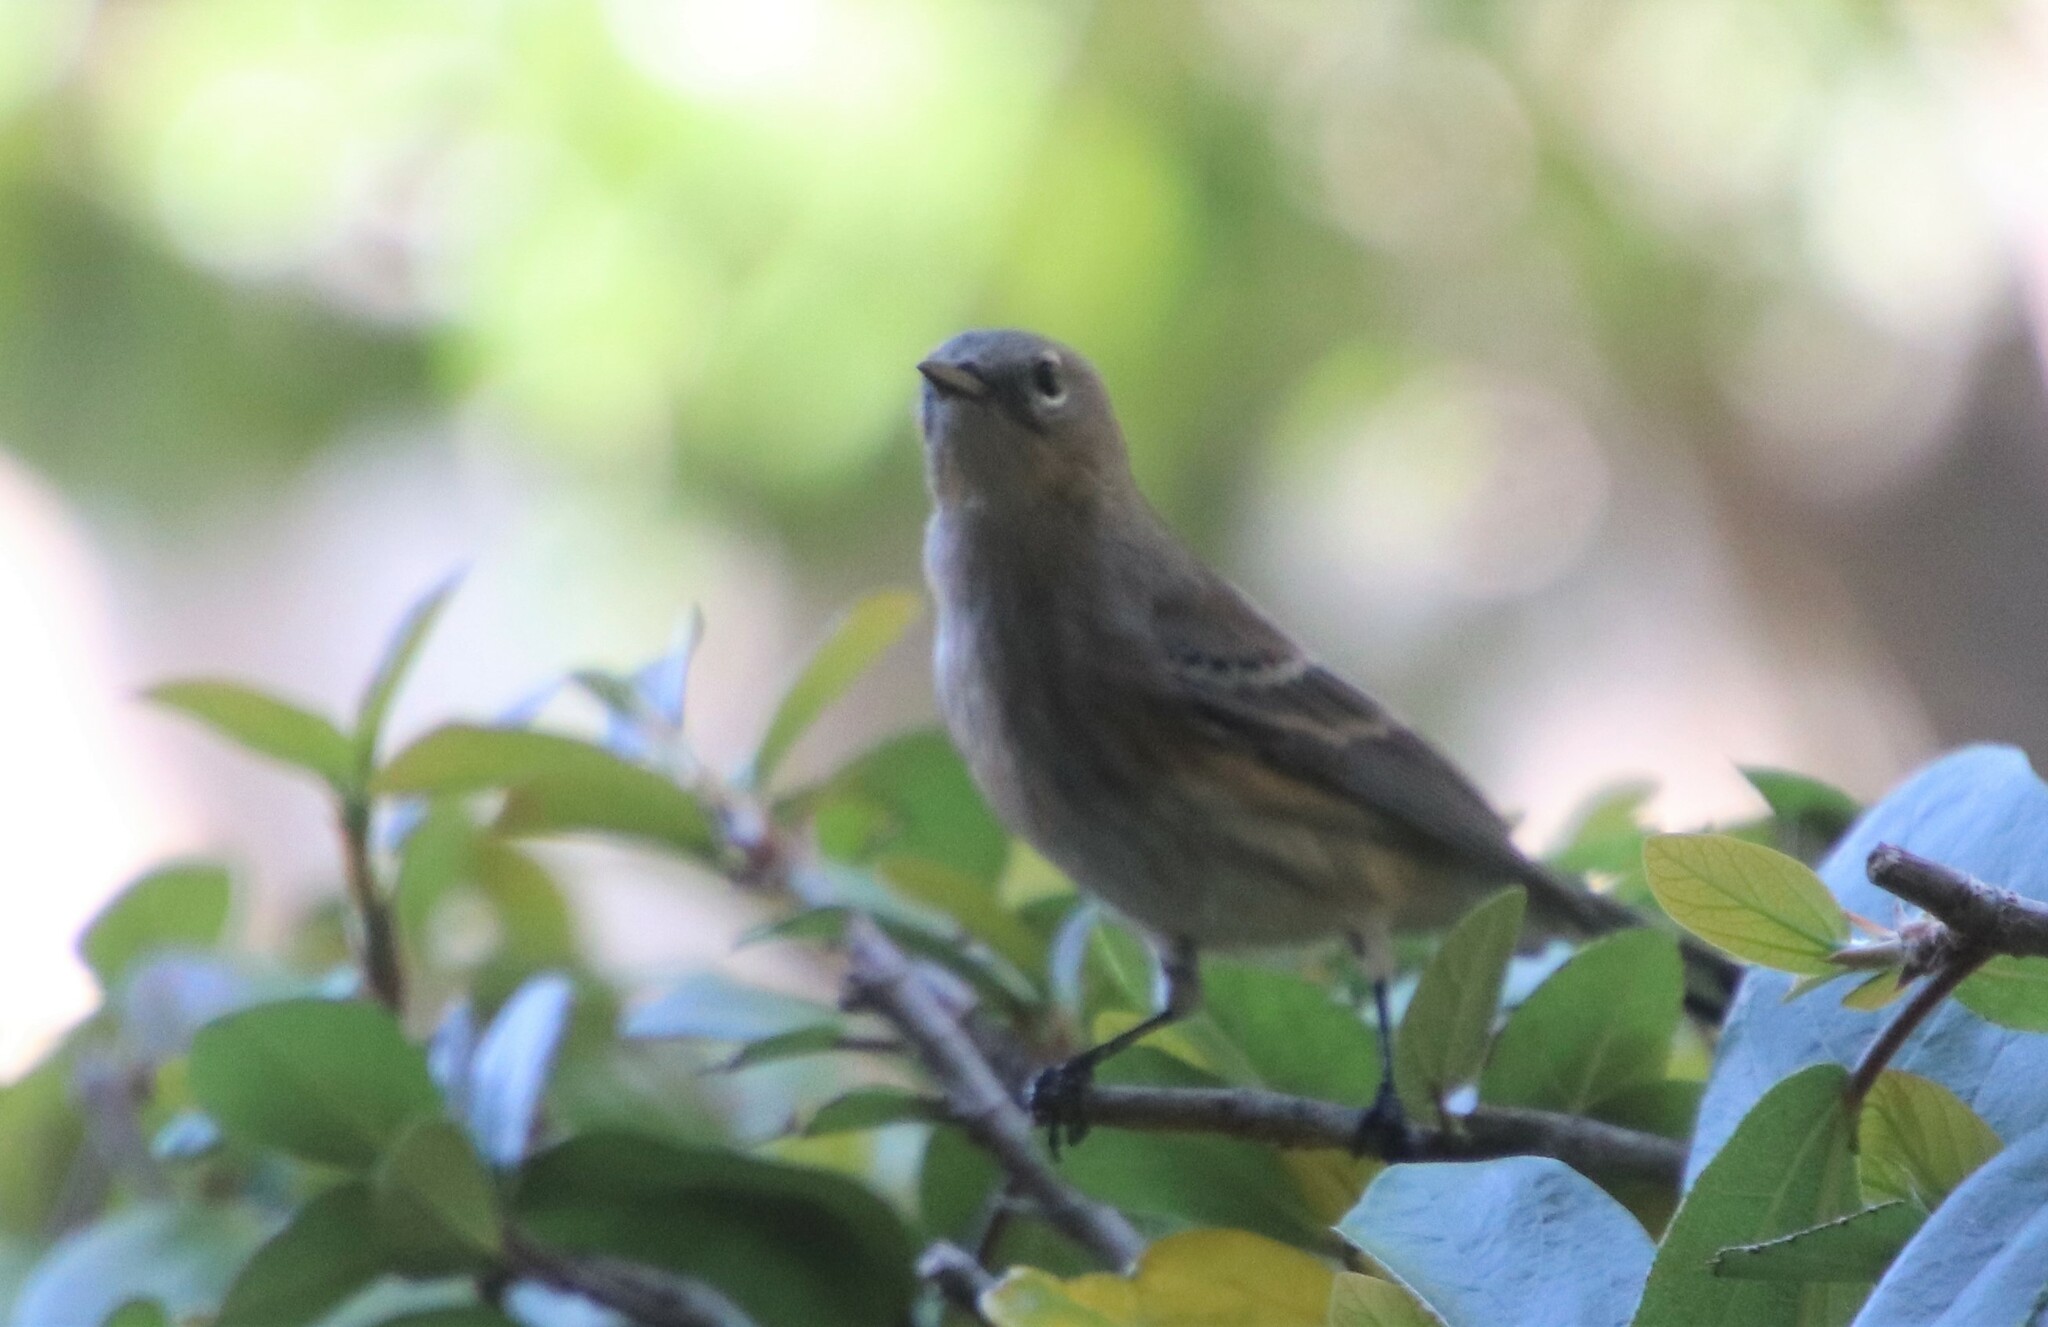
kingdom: Animalia
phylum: Chordata
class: Aves
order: Passeriformes
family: Parulidae
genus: Setophaga
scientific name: Setophaga auduboni
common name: Audubon's warbler
